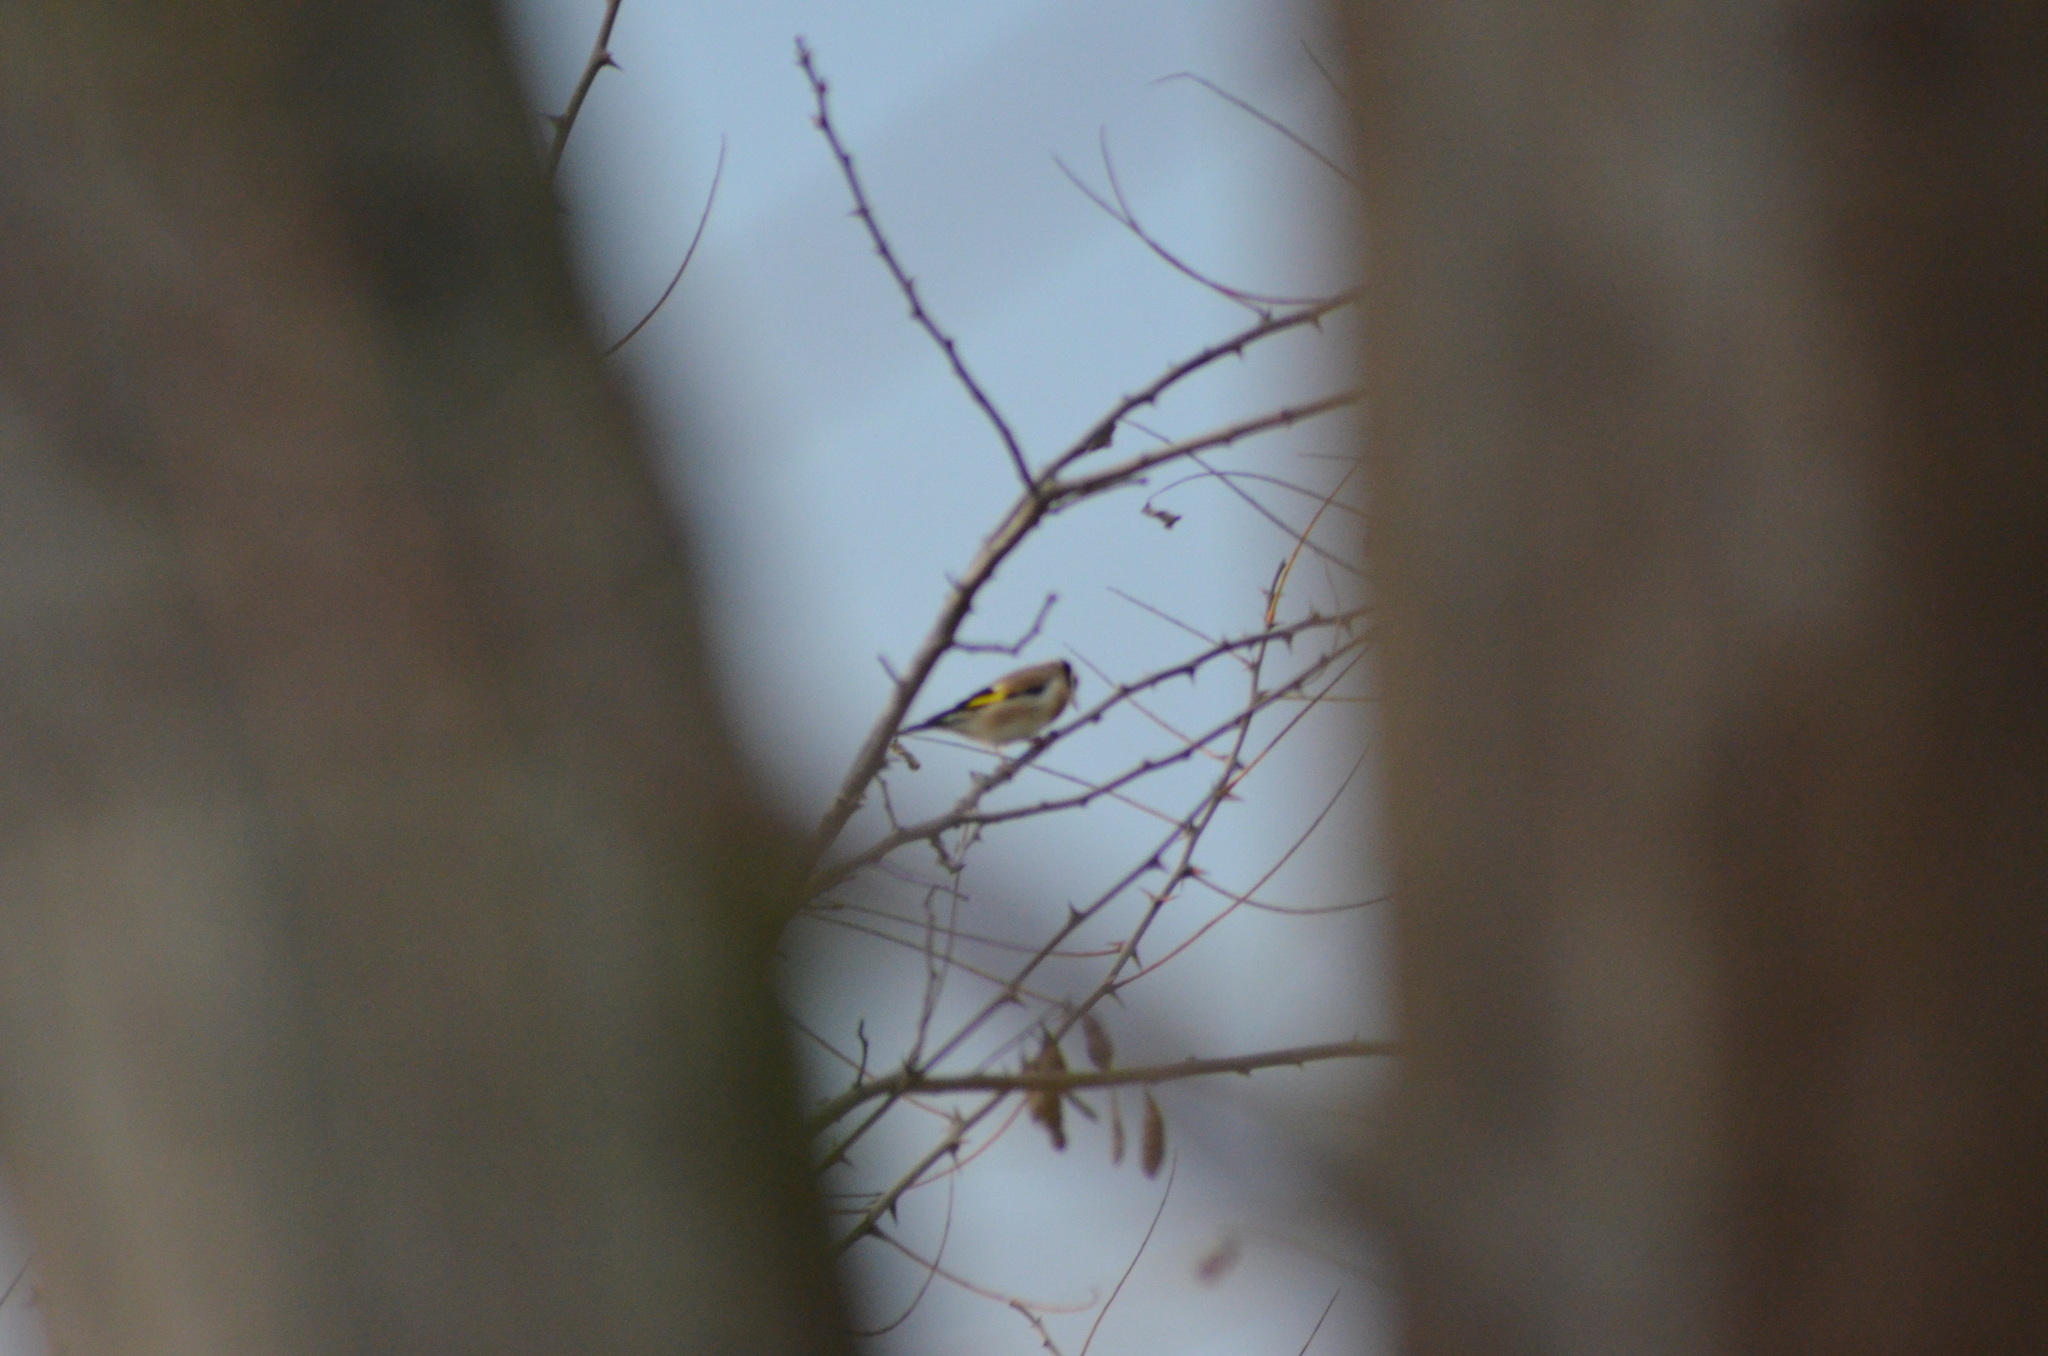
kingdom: Animalia
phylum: Chordata
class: Aves
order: Passeriformes
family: Fringillidae
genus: Carduelis
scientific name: Carduelis carduelis
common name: European goldfinch
